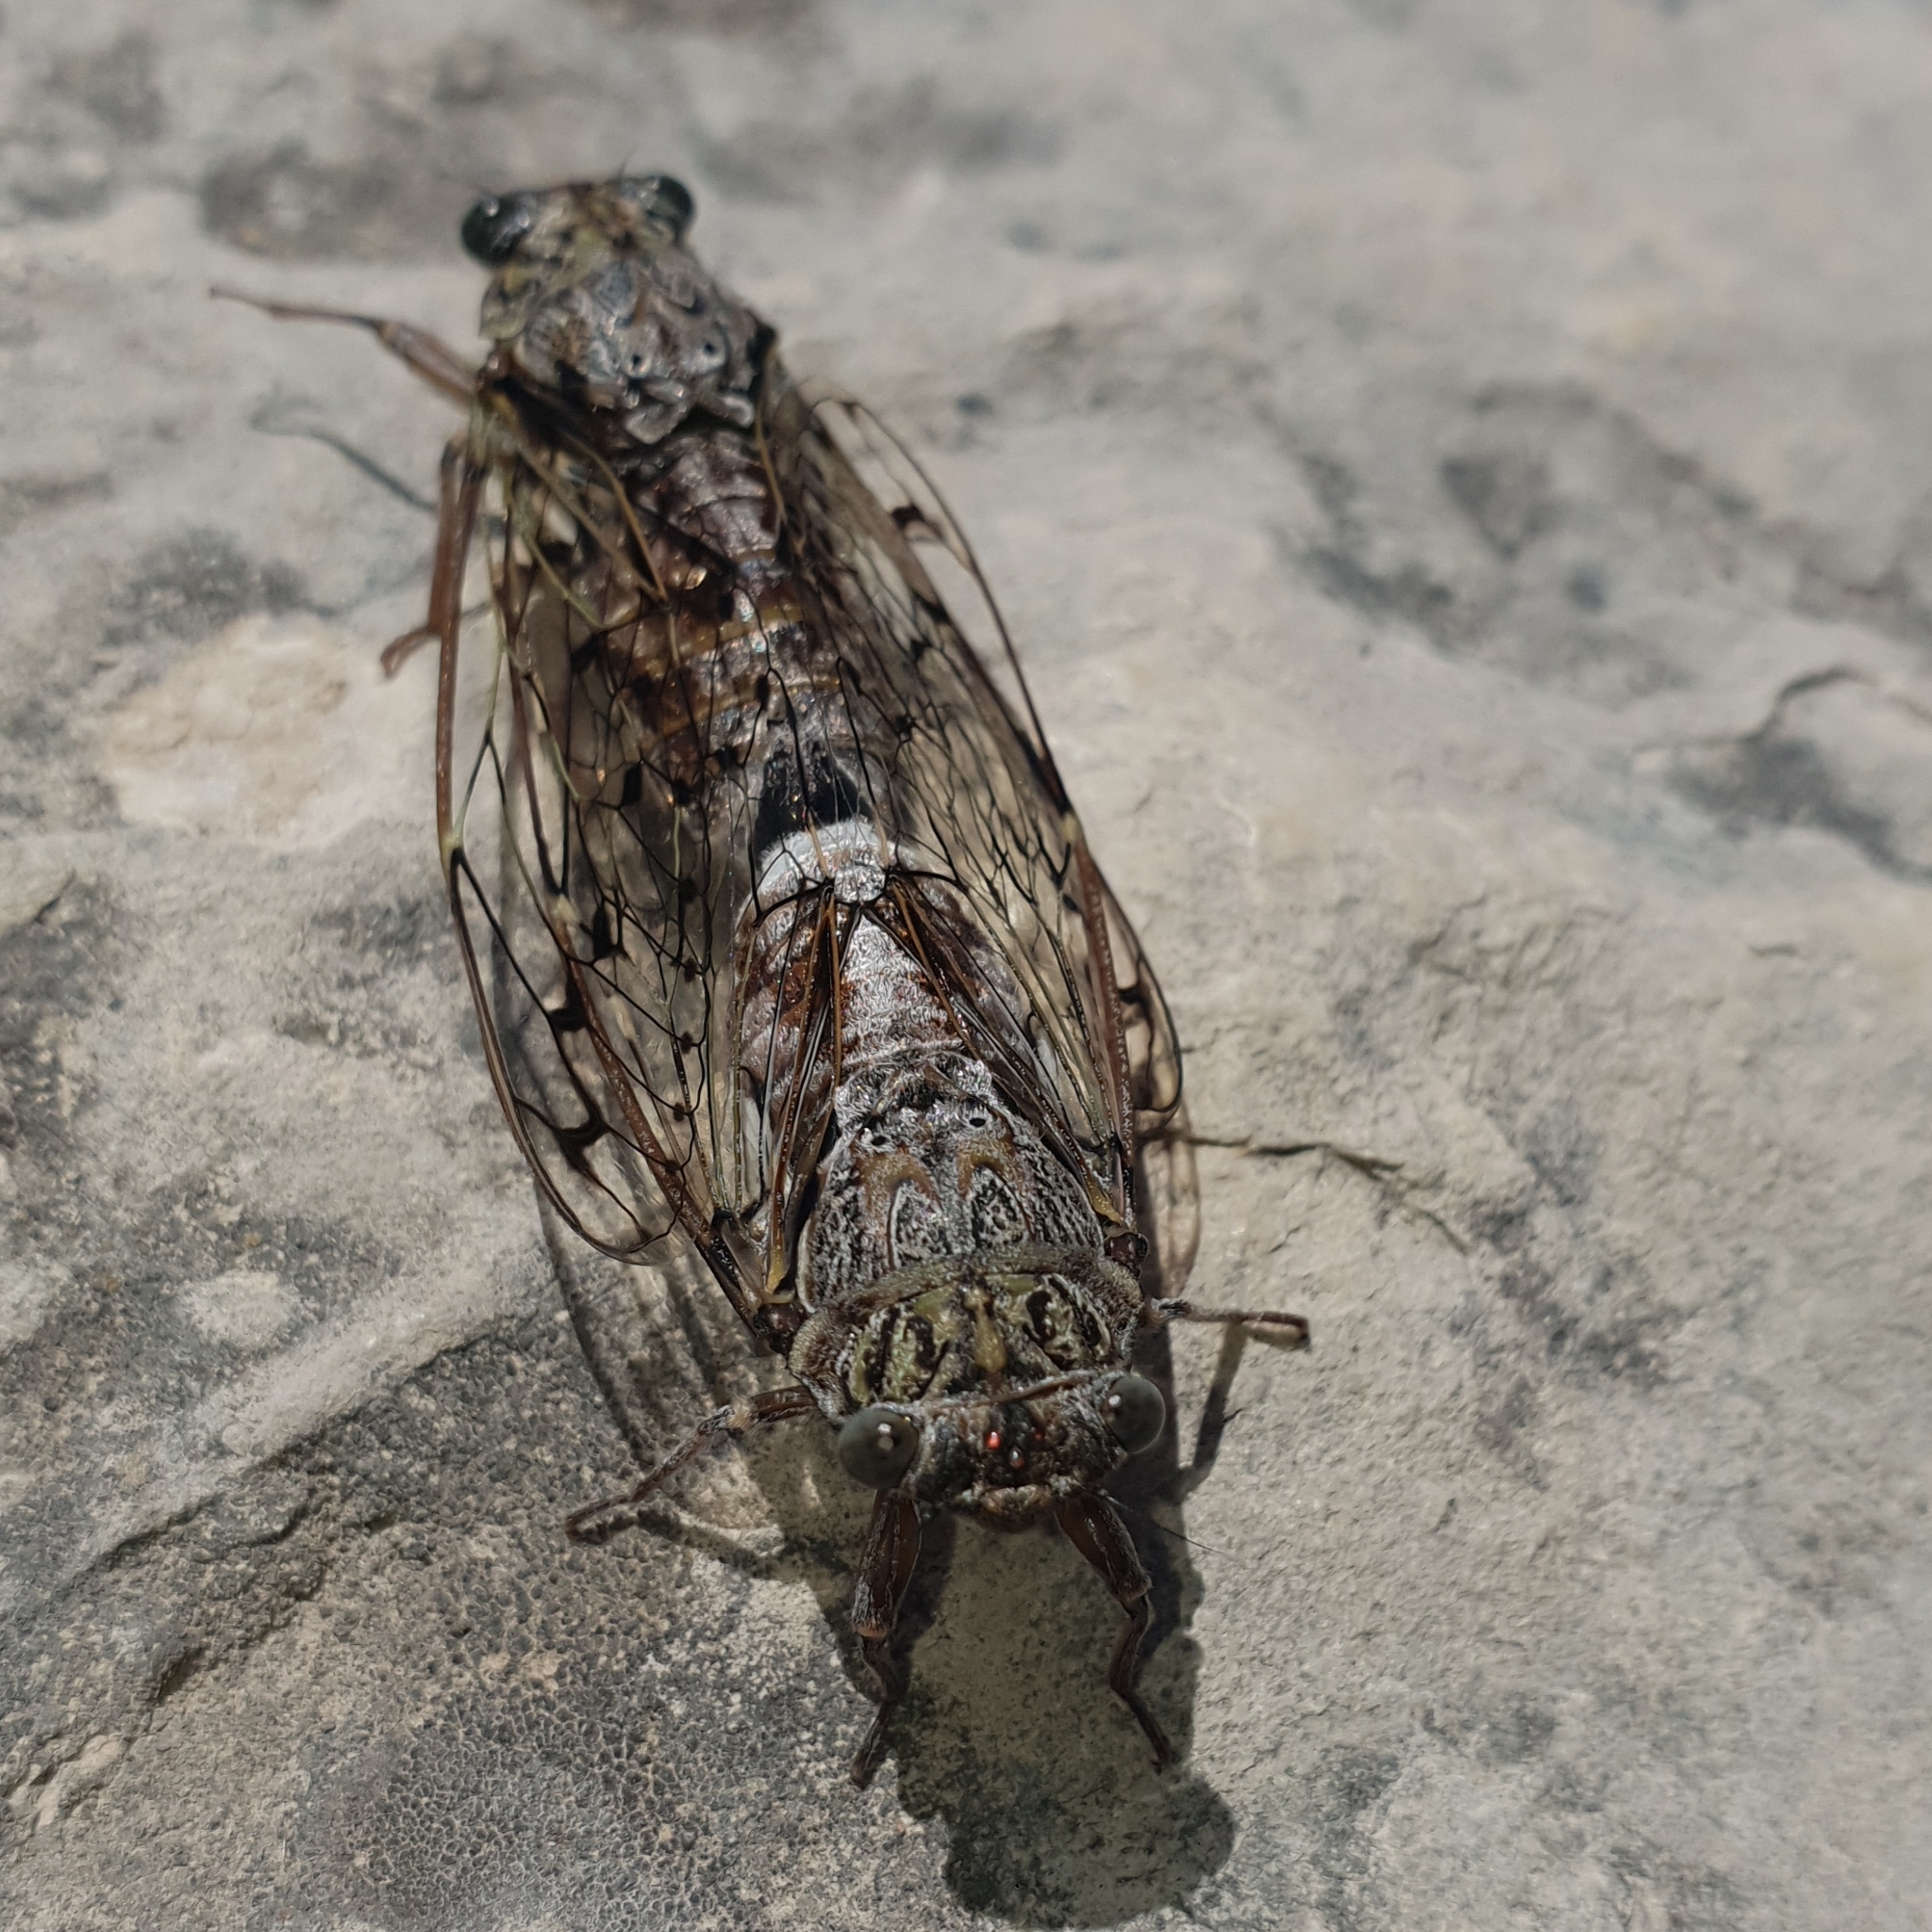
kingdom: Animalia
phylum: Arthropoda
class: Insecta
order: Hemiptera
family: Cicadidae
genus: Cicada
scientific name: Cicada orni
